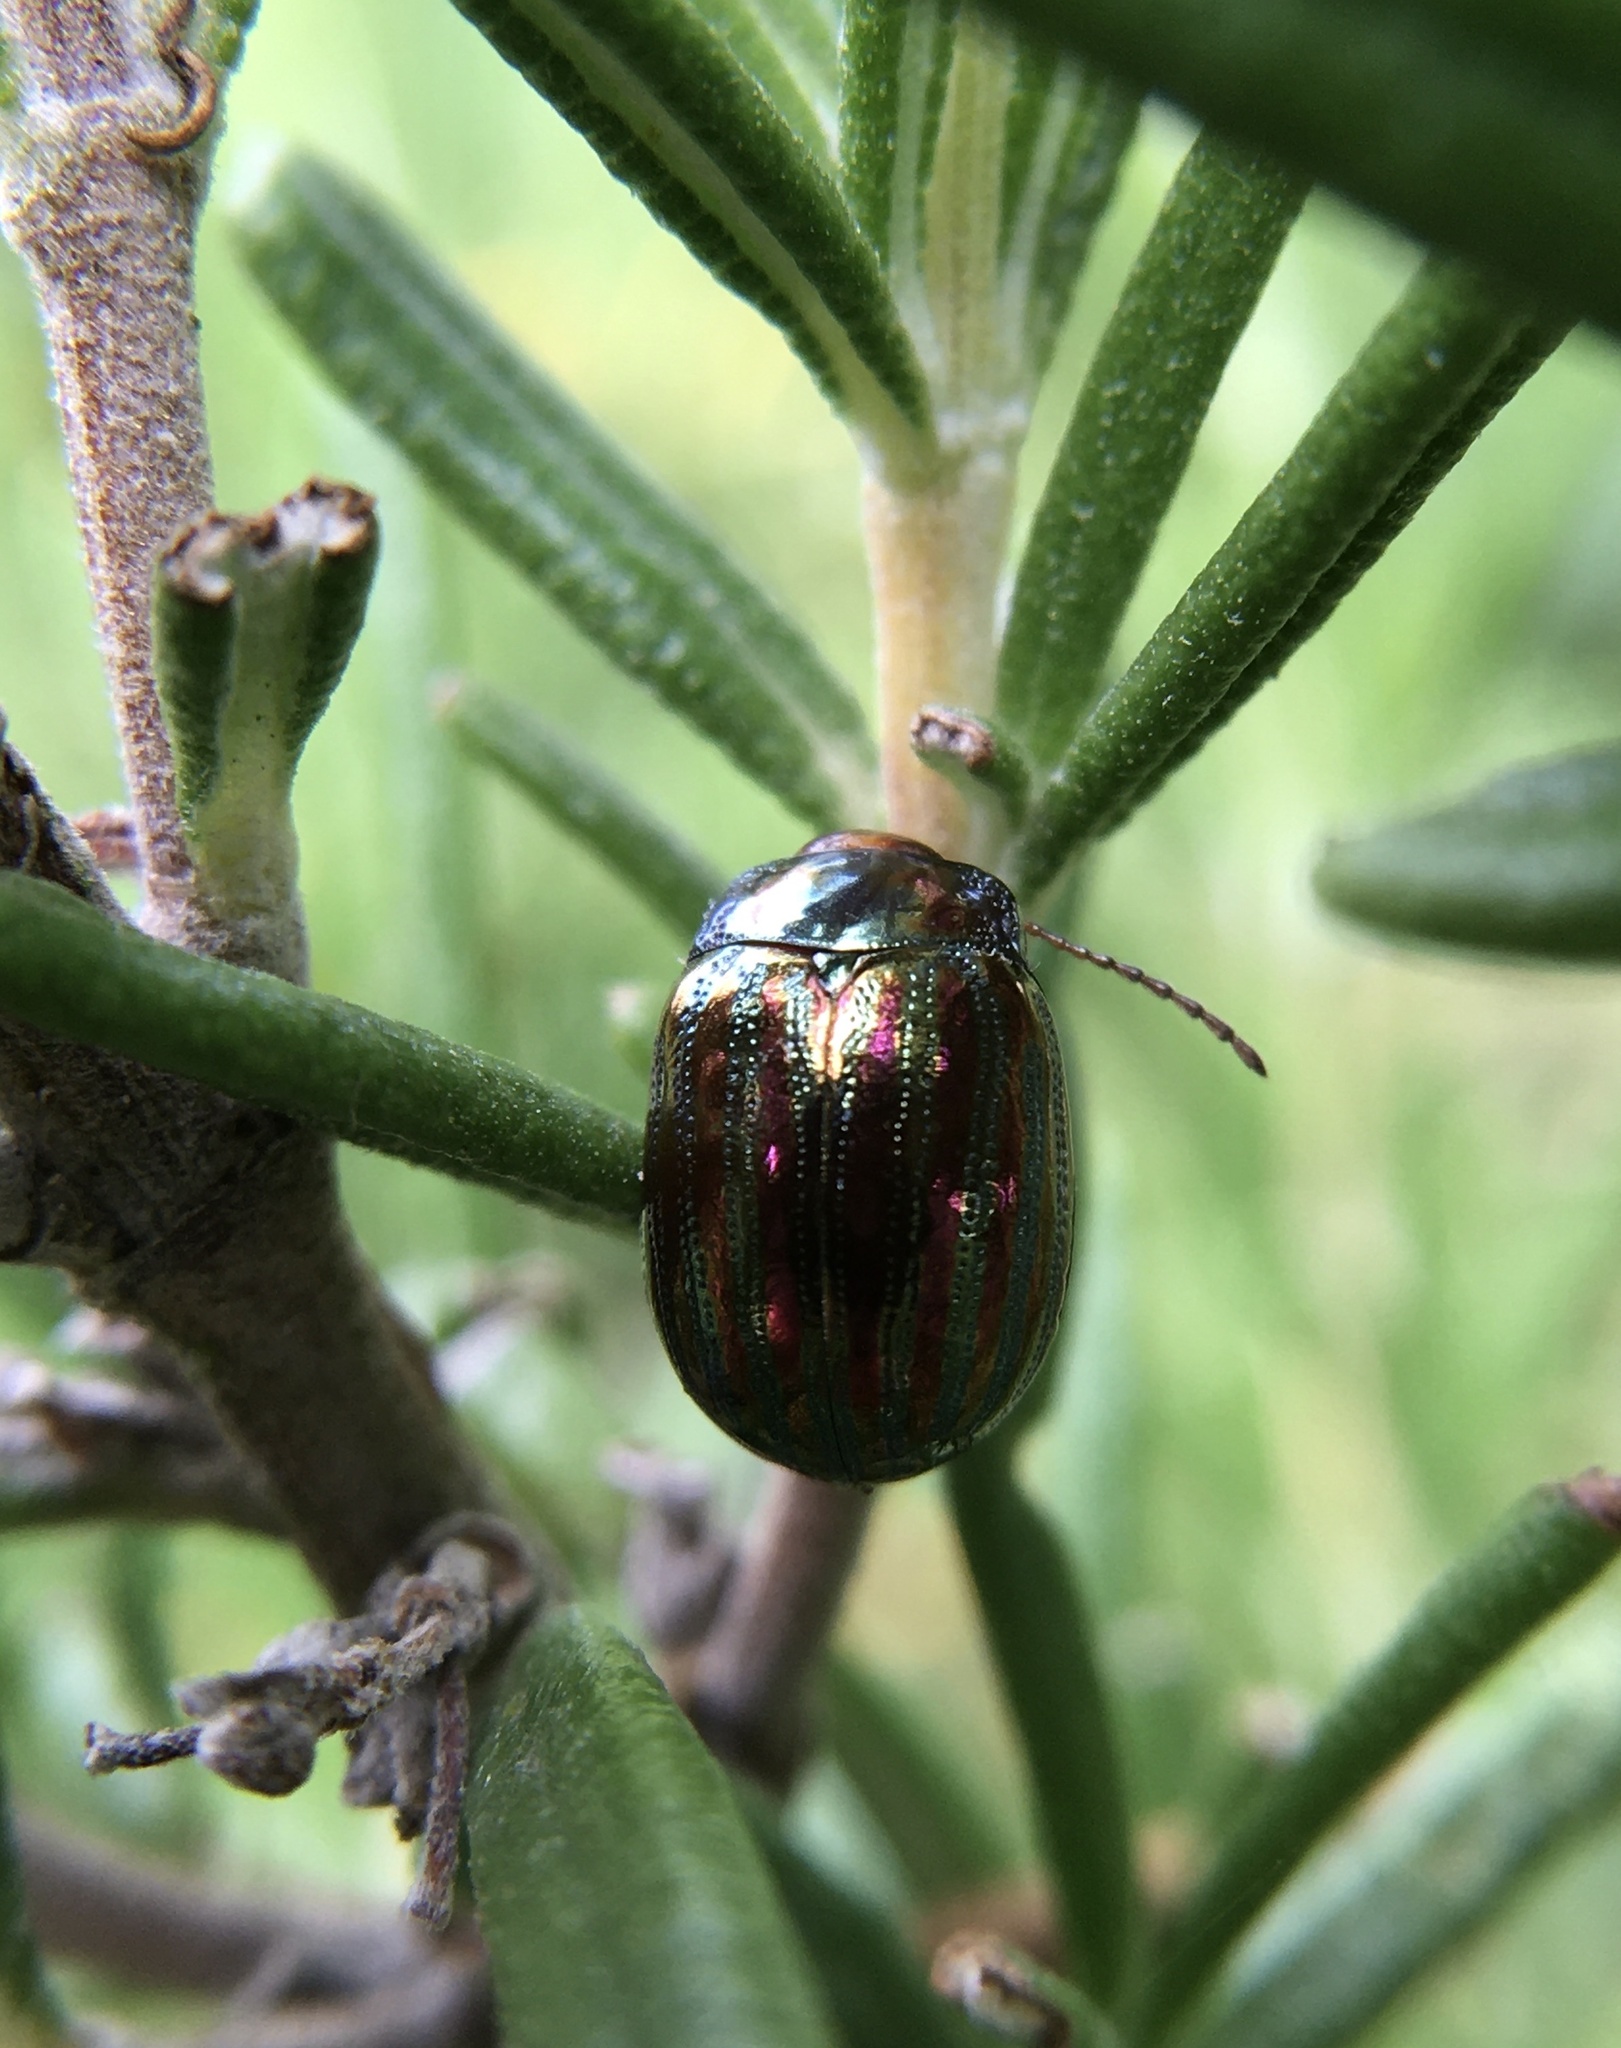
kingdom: Animalia
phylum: Arthropoda
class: Insecta
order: Coleoptera
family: Chrysomelidae
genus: Chrysolina
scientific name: Chrysolina americana
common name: Rosemary beetle
